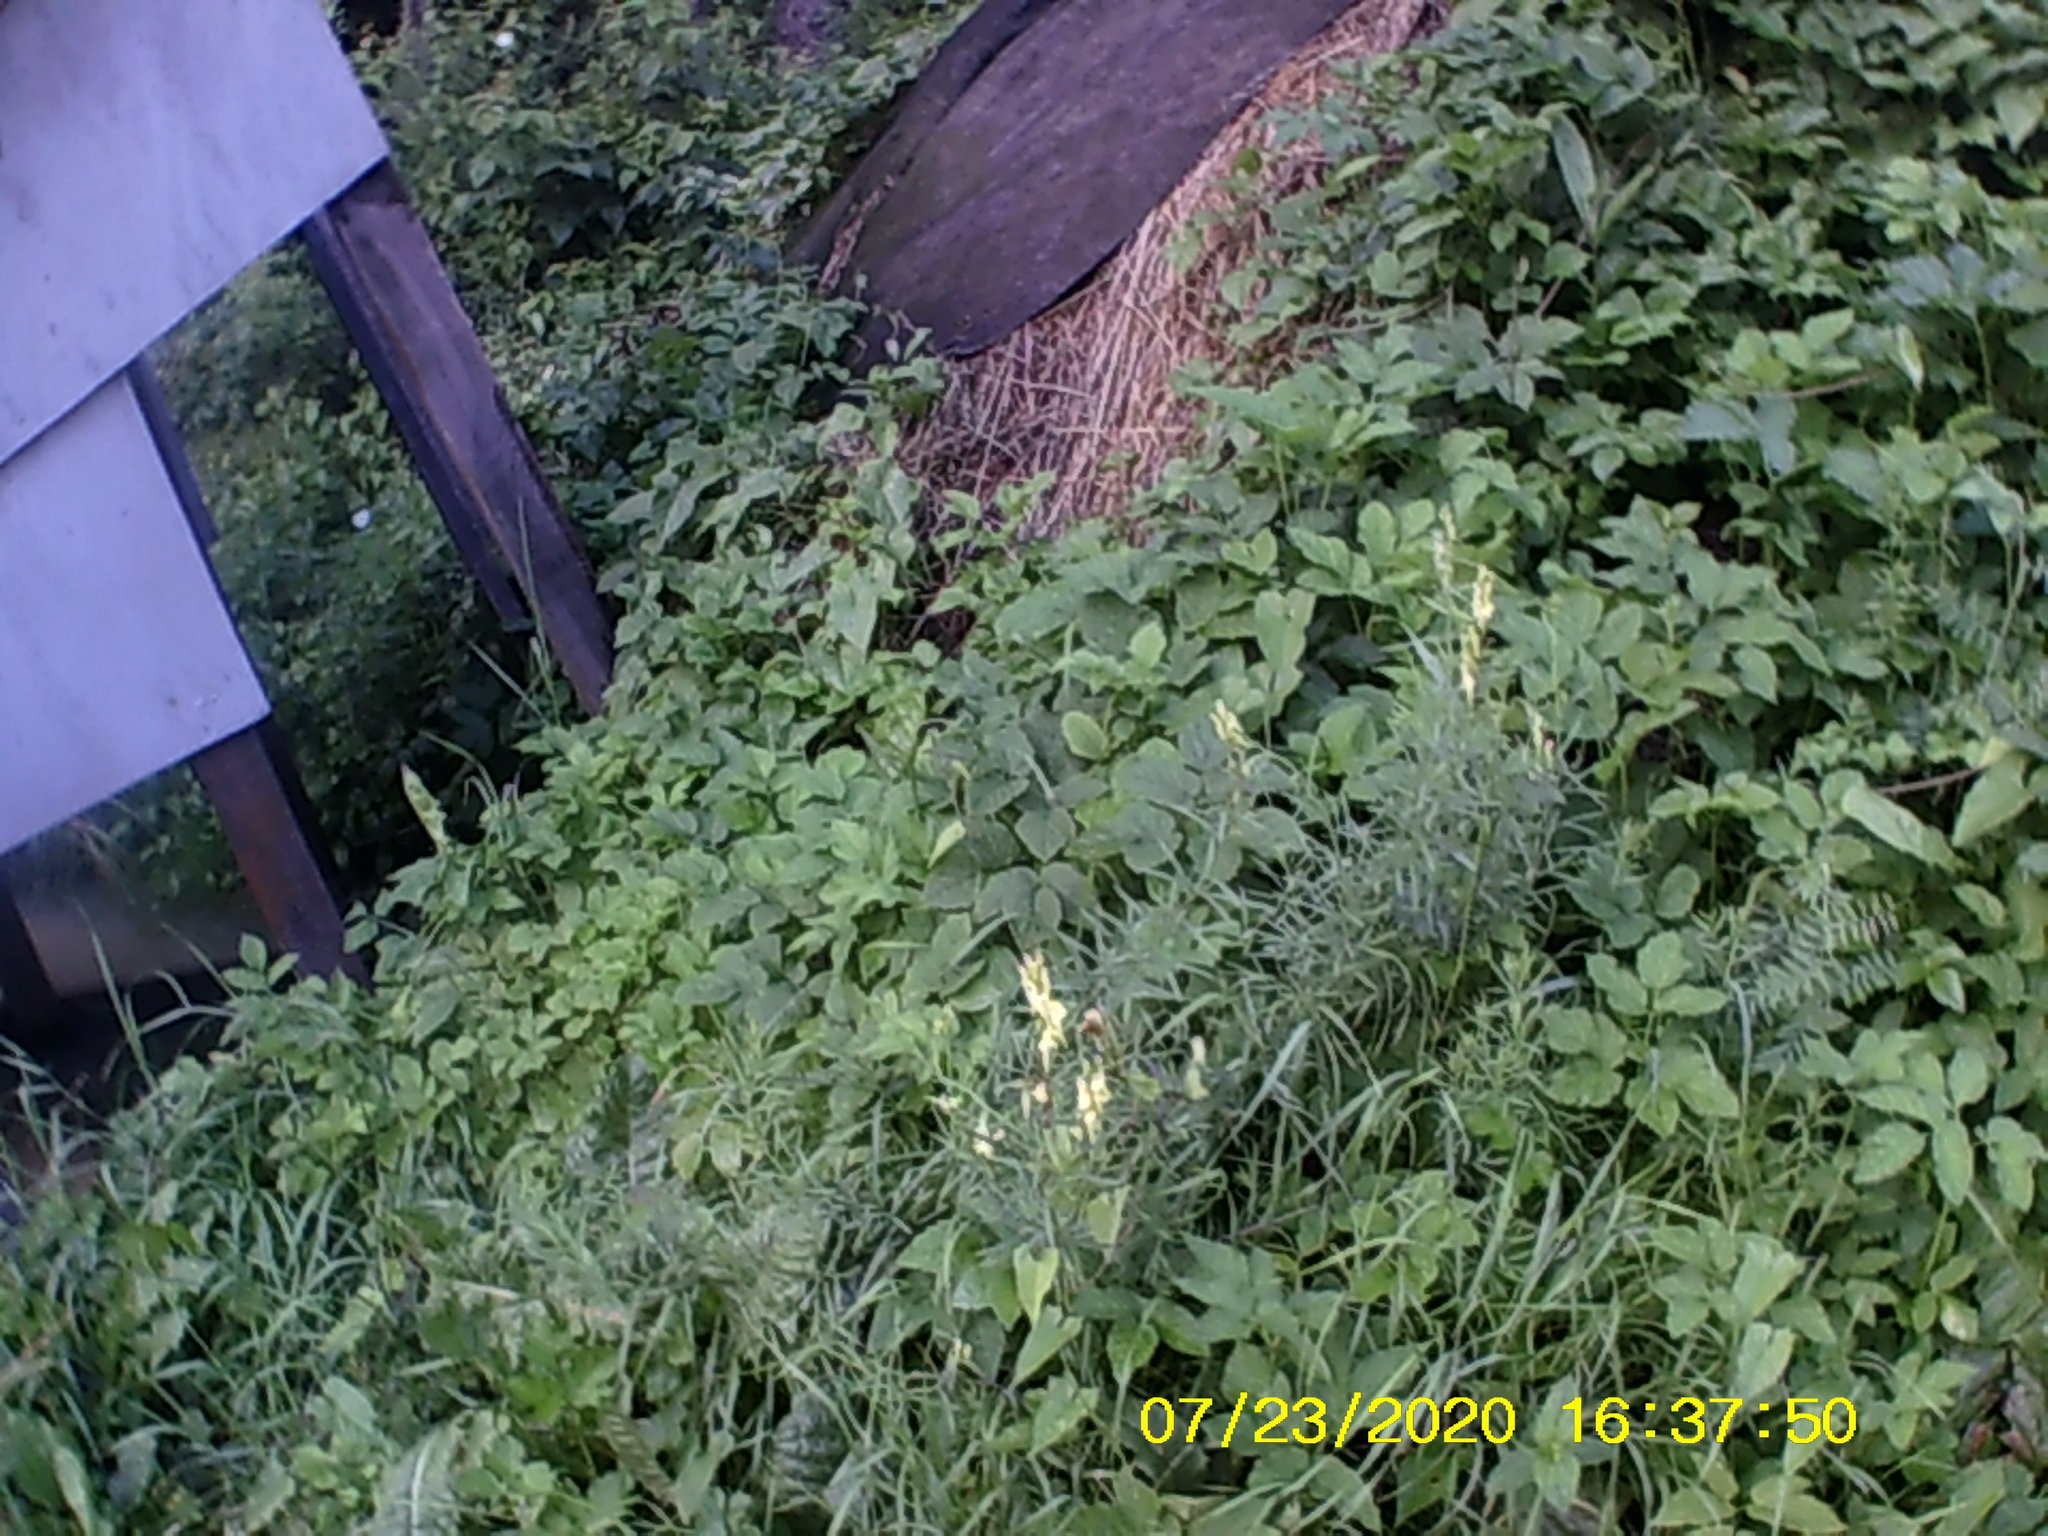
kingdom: Plantae
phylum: Tracheophyta
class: Magnoliopsida
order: Apiales
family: Apiaceae
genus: Aegopodium
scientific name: Aegopodium podagraria
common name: Ground-elder
